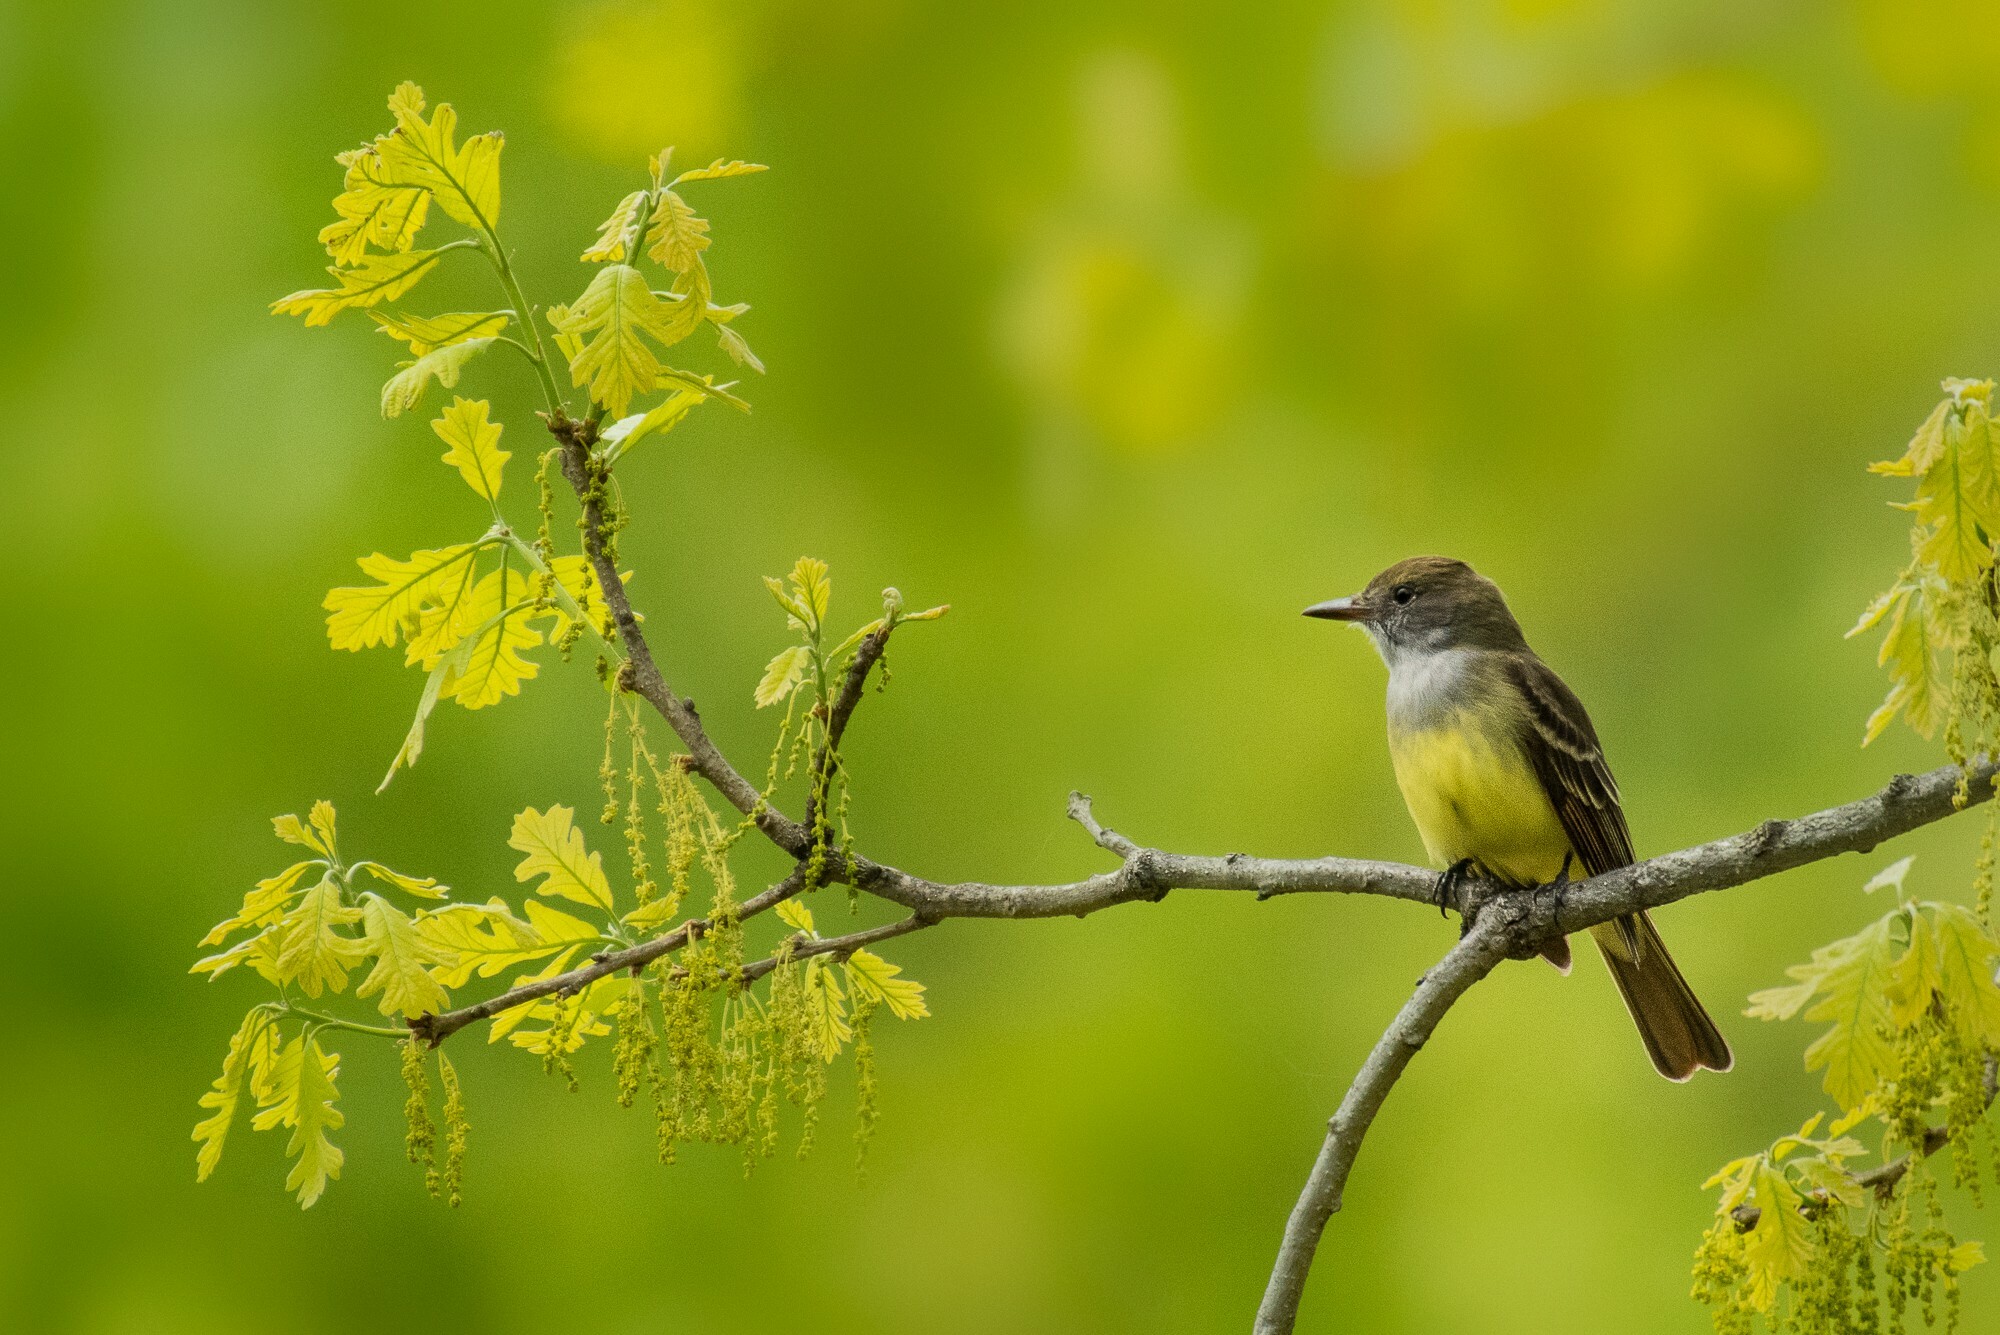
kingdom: Animalia
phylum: Chordata
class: Aves
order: Passeriformes
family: Tyrannidae
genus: Myiarchus
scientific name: Myiarchus crinitus
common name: Great crested flycatcher
